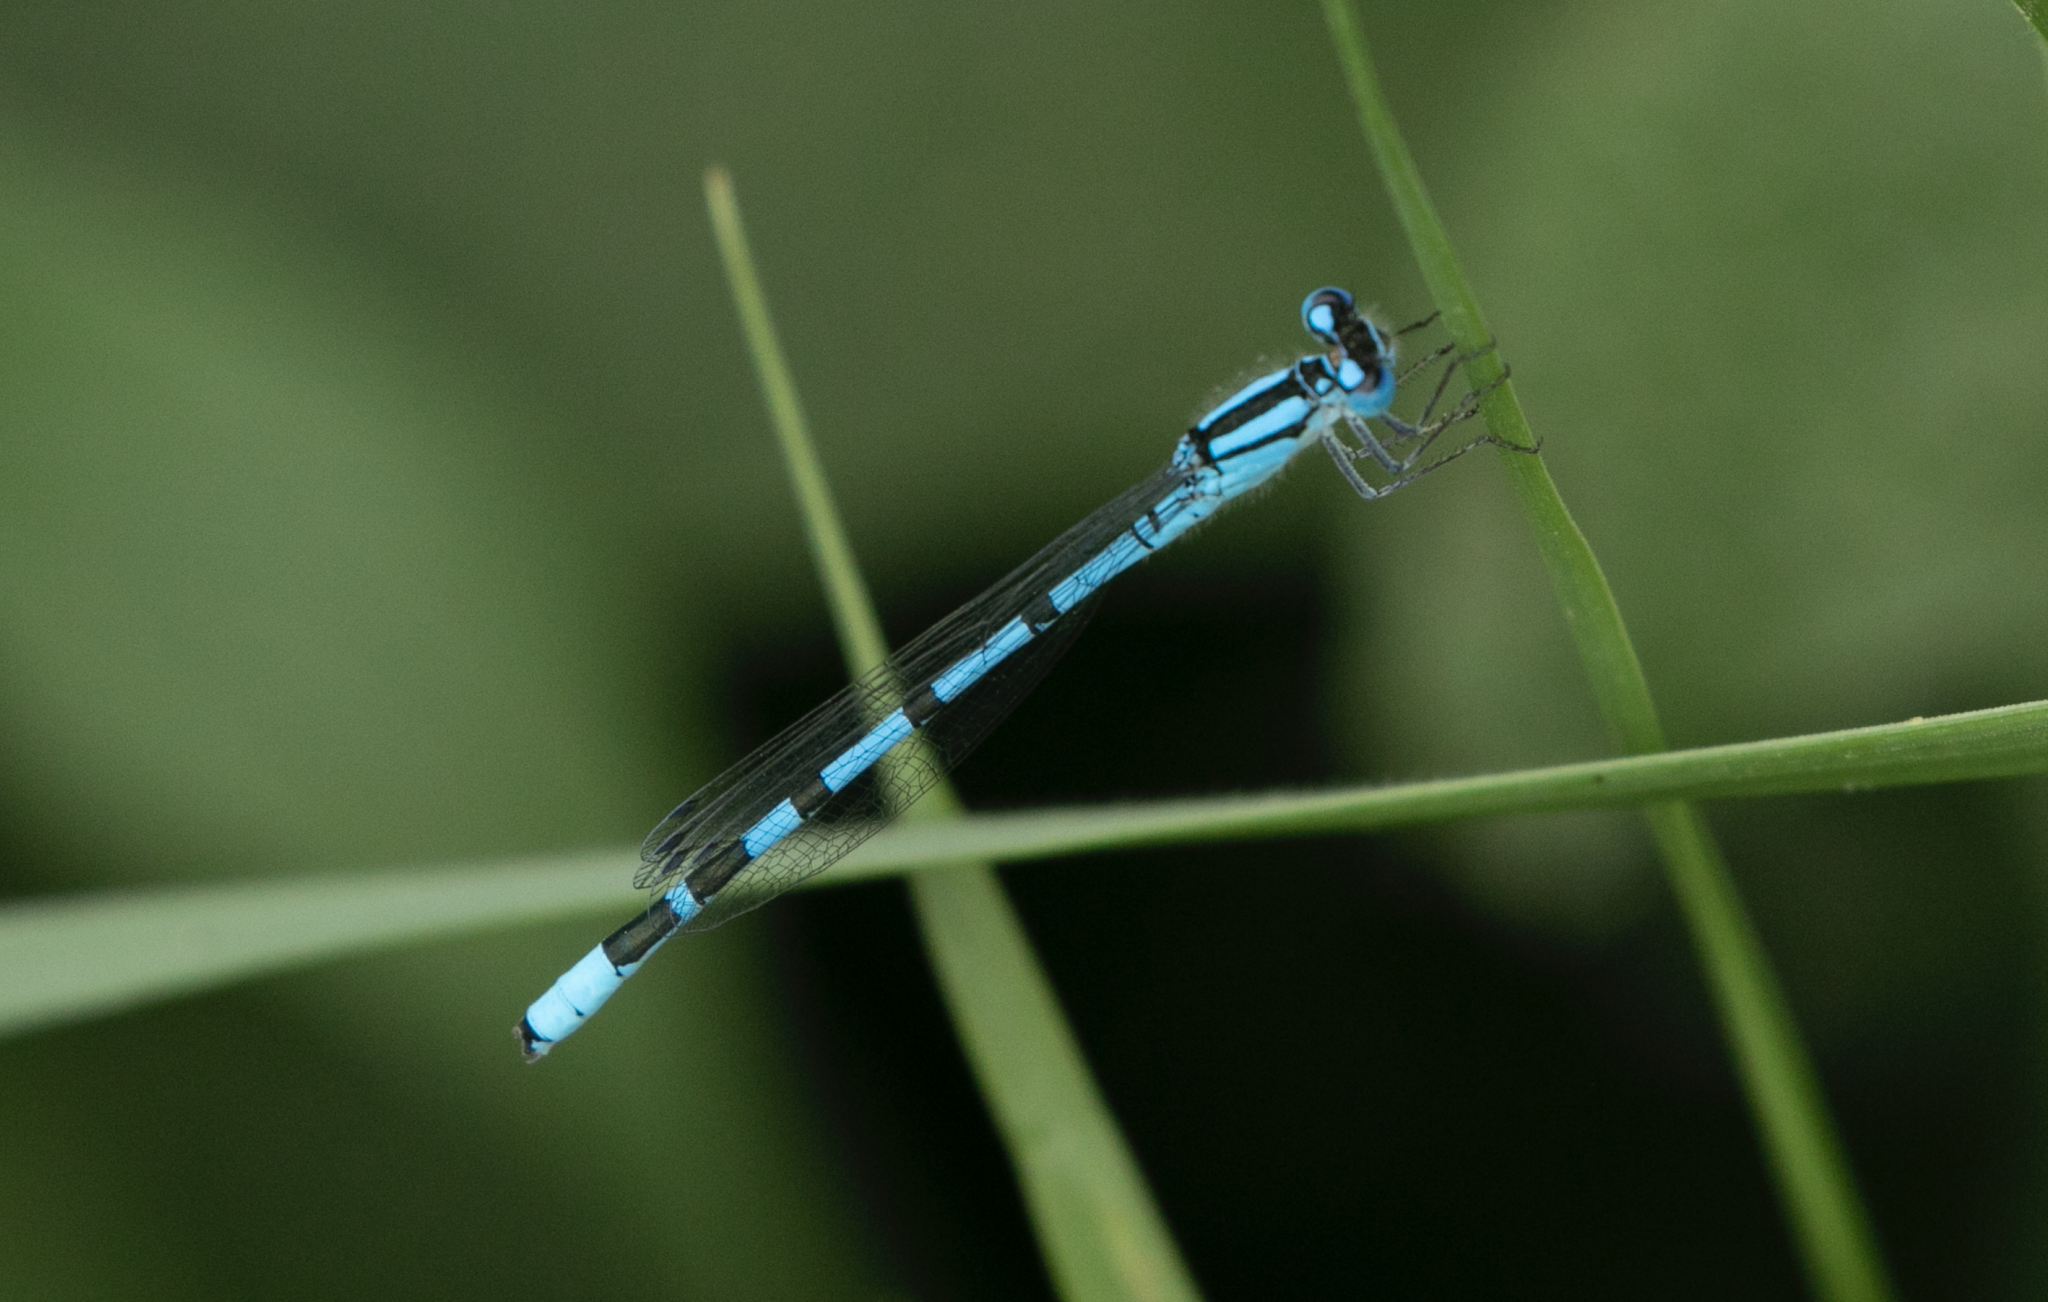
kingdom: Animalia
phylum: Arthropoda
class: Insecta
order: Odonata
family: Coenagrionidae
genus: Enallagma
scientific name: Enallagma cyathigerum
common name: Common blue damselfly
